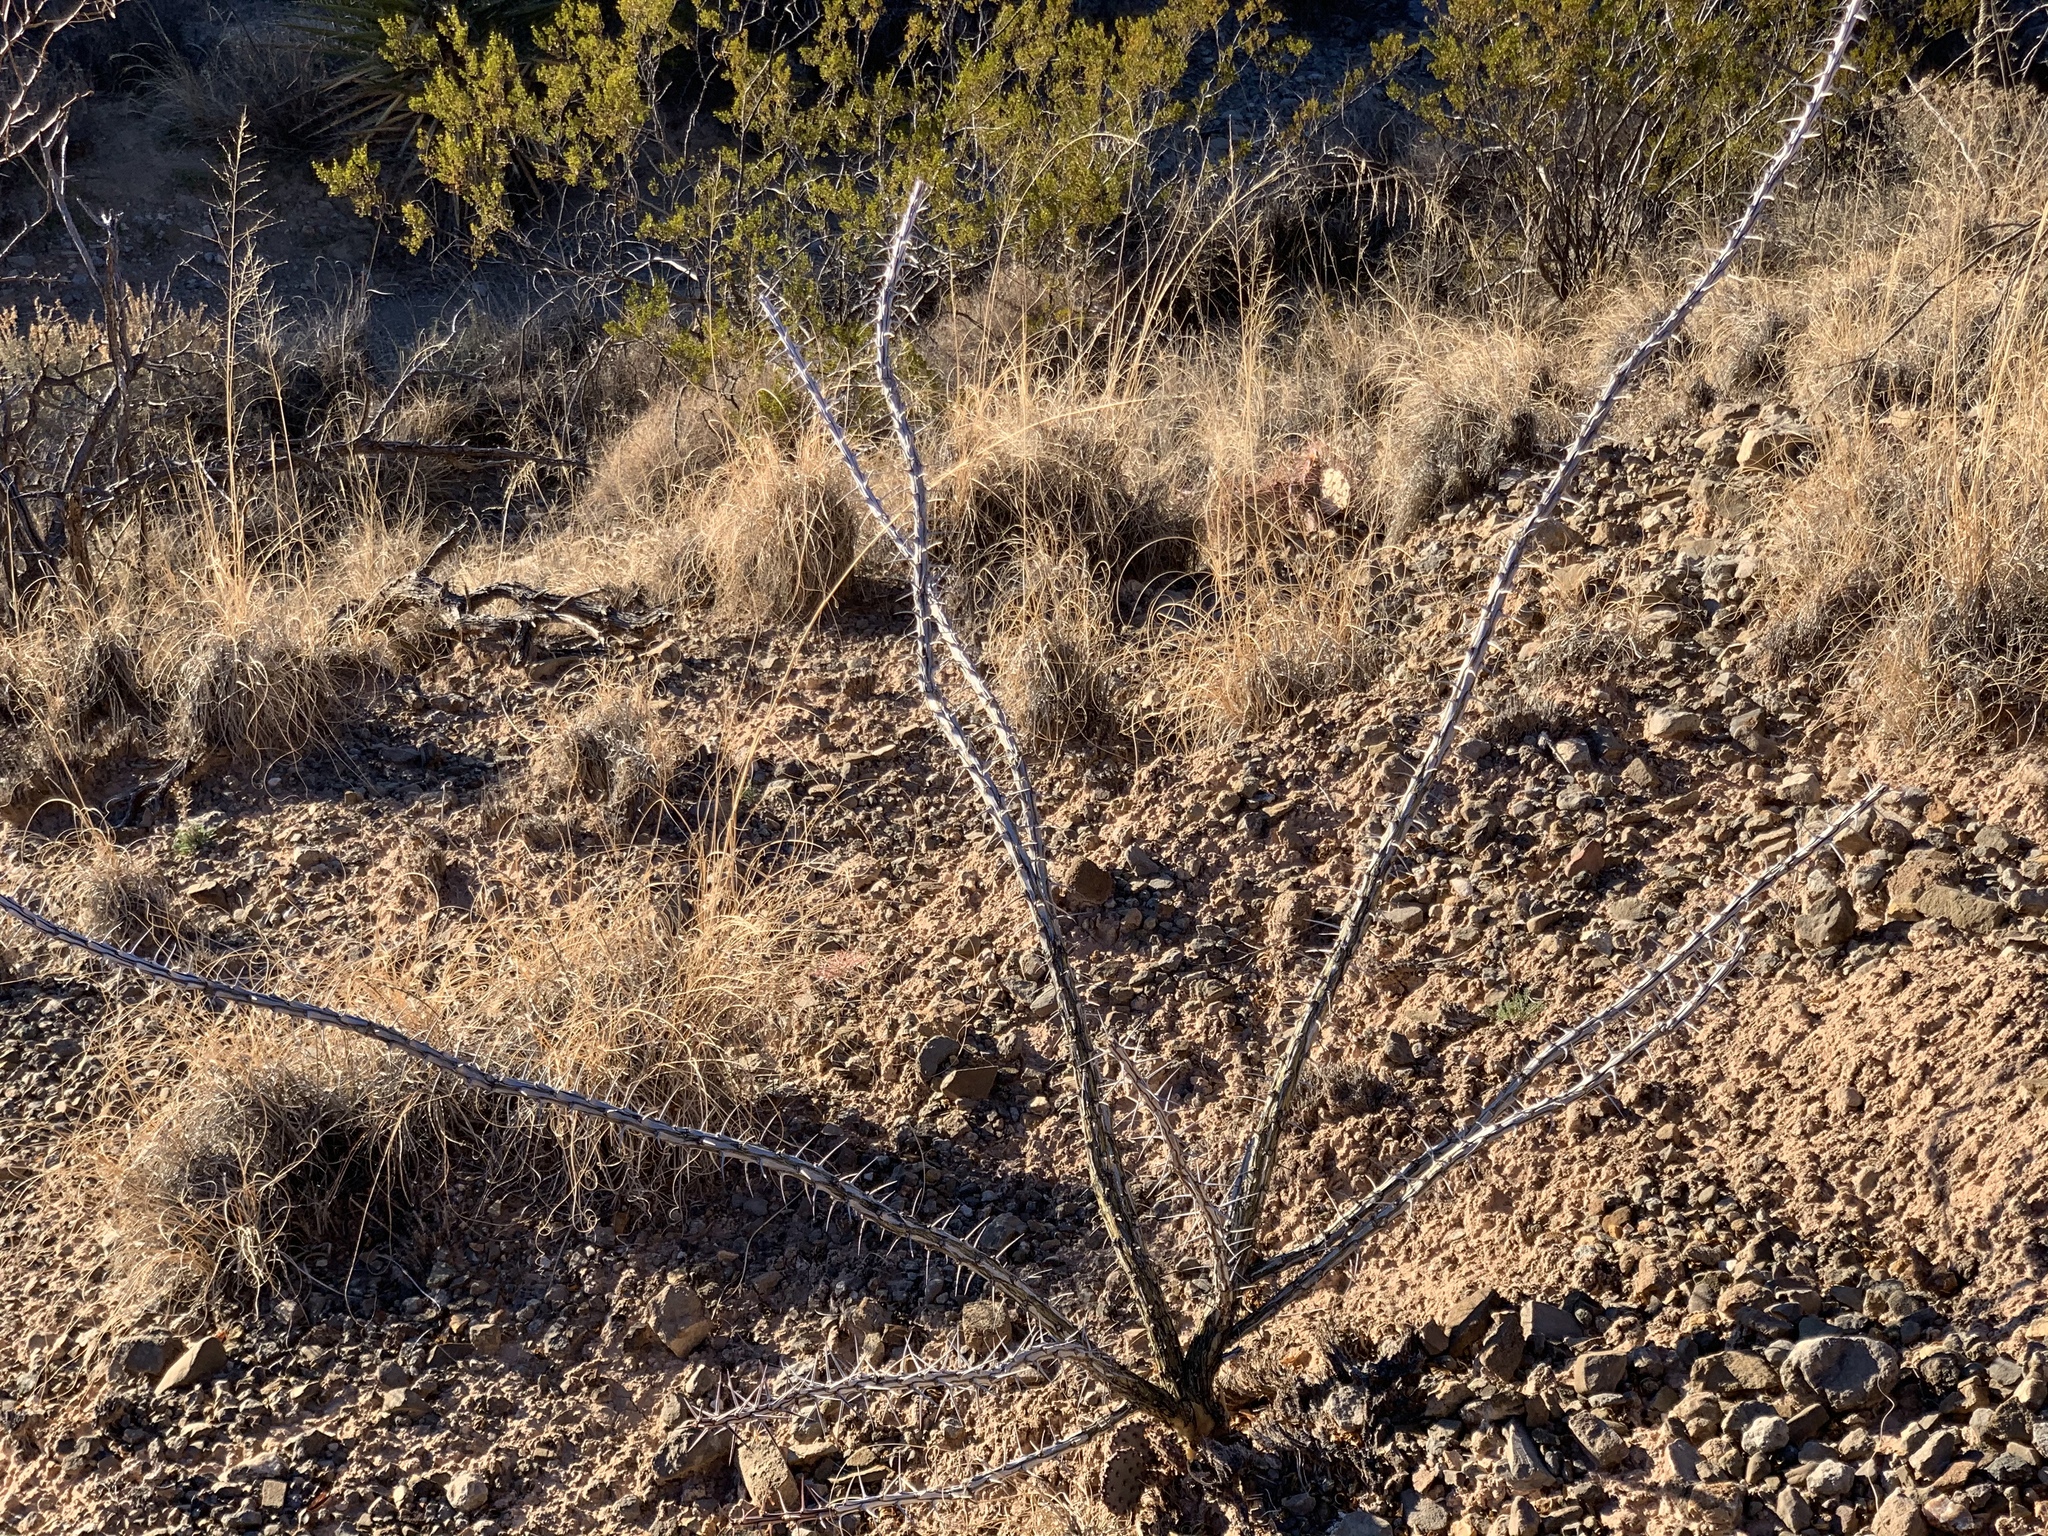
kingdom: Plantae
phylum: Tracheophyta
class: Magnoliopsida
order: Ericales
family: Fouquieriaceae
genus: Fouquieria
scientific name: Fouquieria splendens
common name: Vine-cactus
